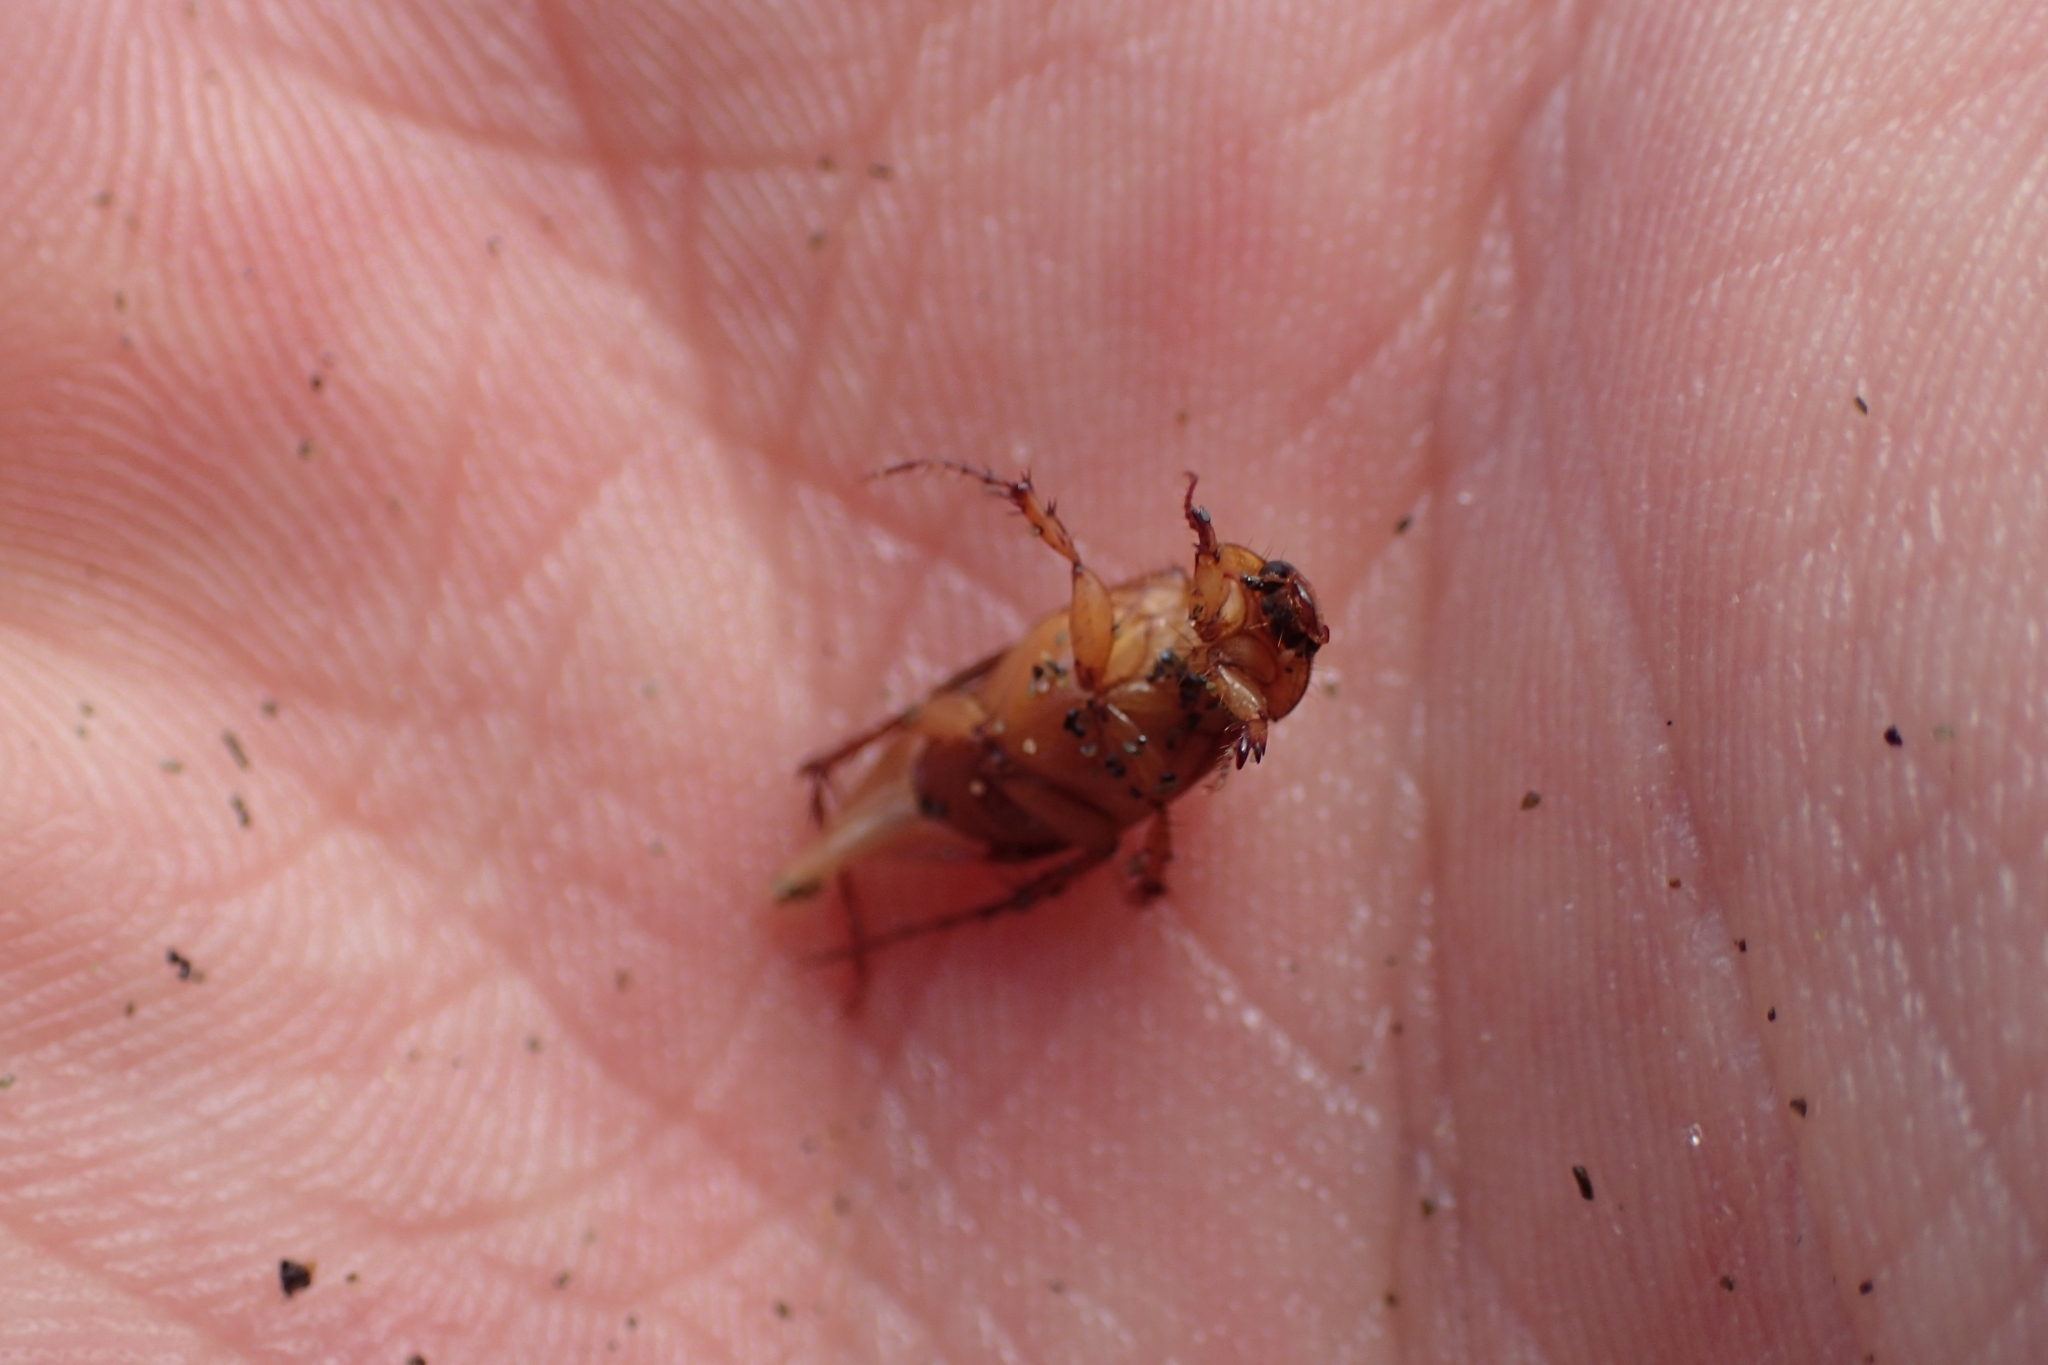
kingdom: Animalia
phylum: Arthropoda
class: Insecta
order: Coleoptera
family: Scarabaeidae
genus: Phyllotocus
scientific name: Phyllotocus macleayi
